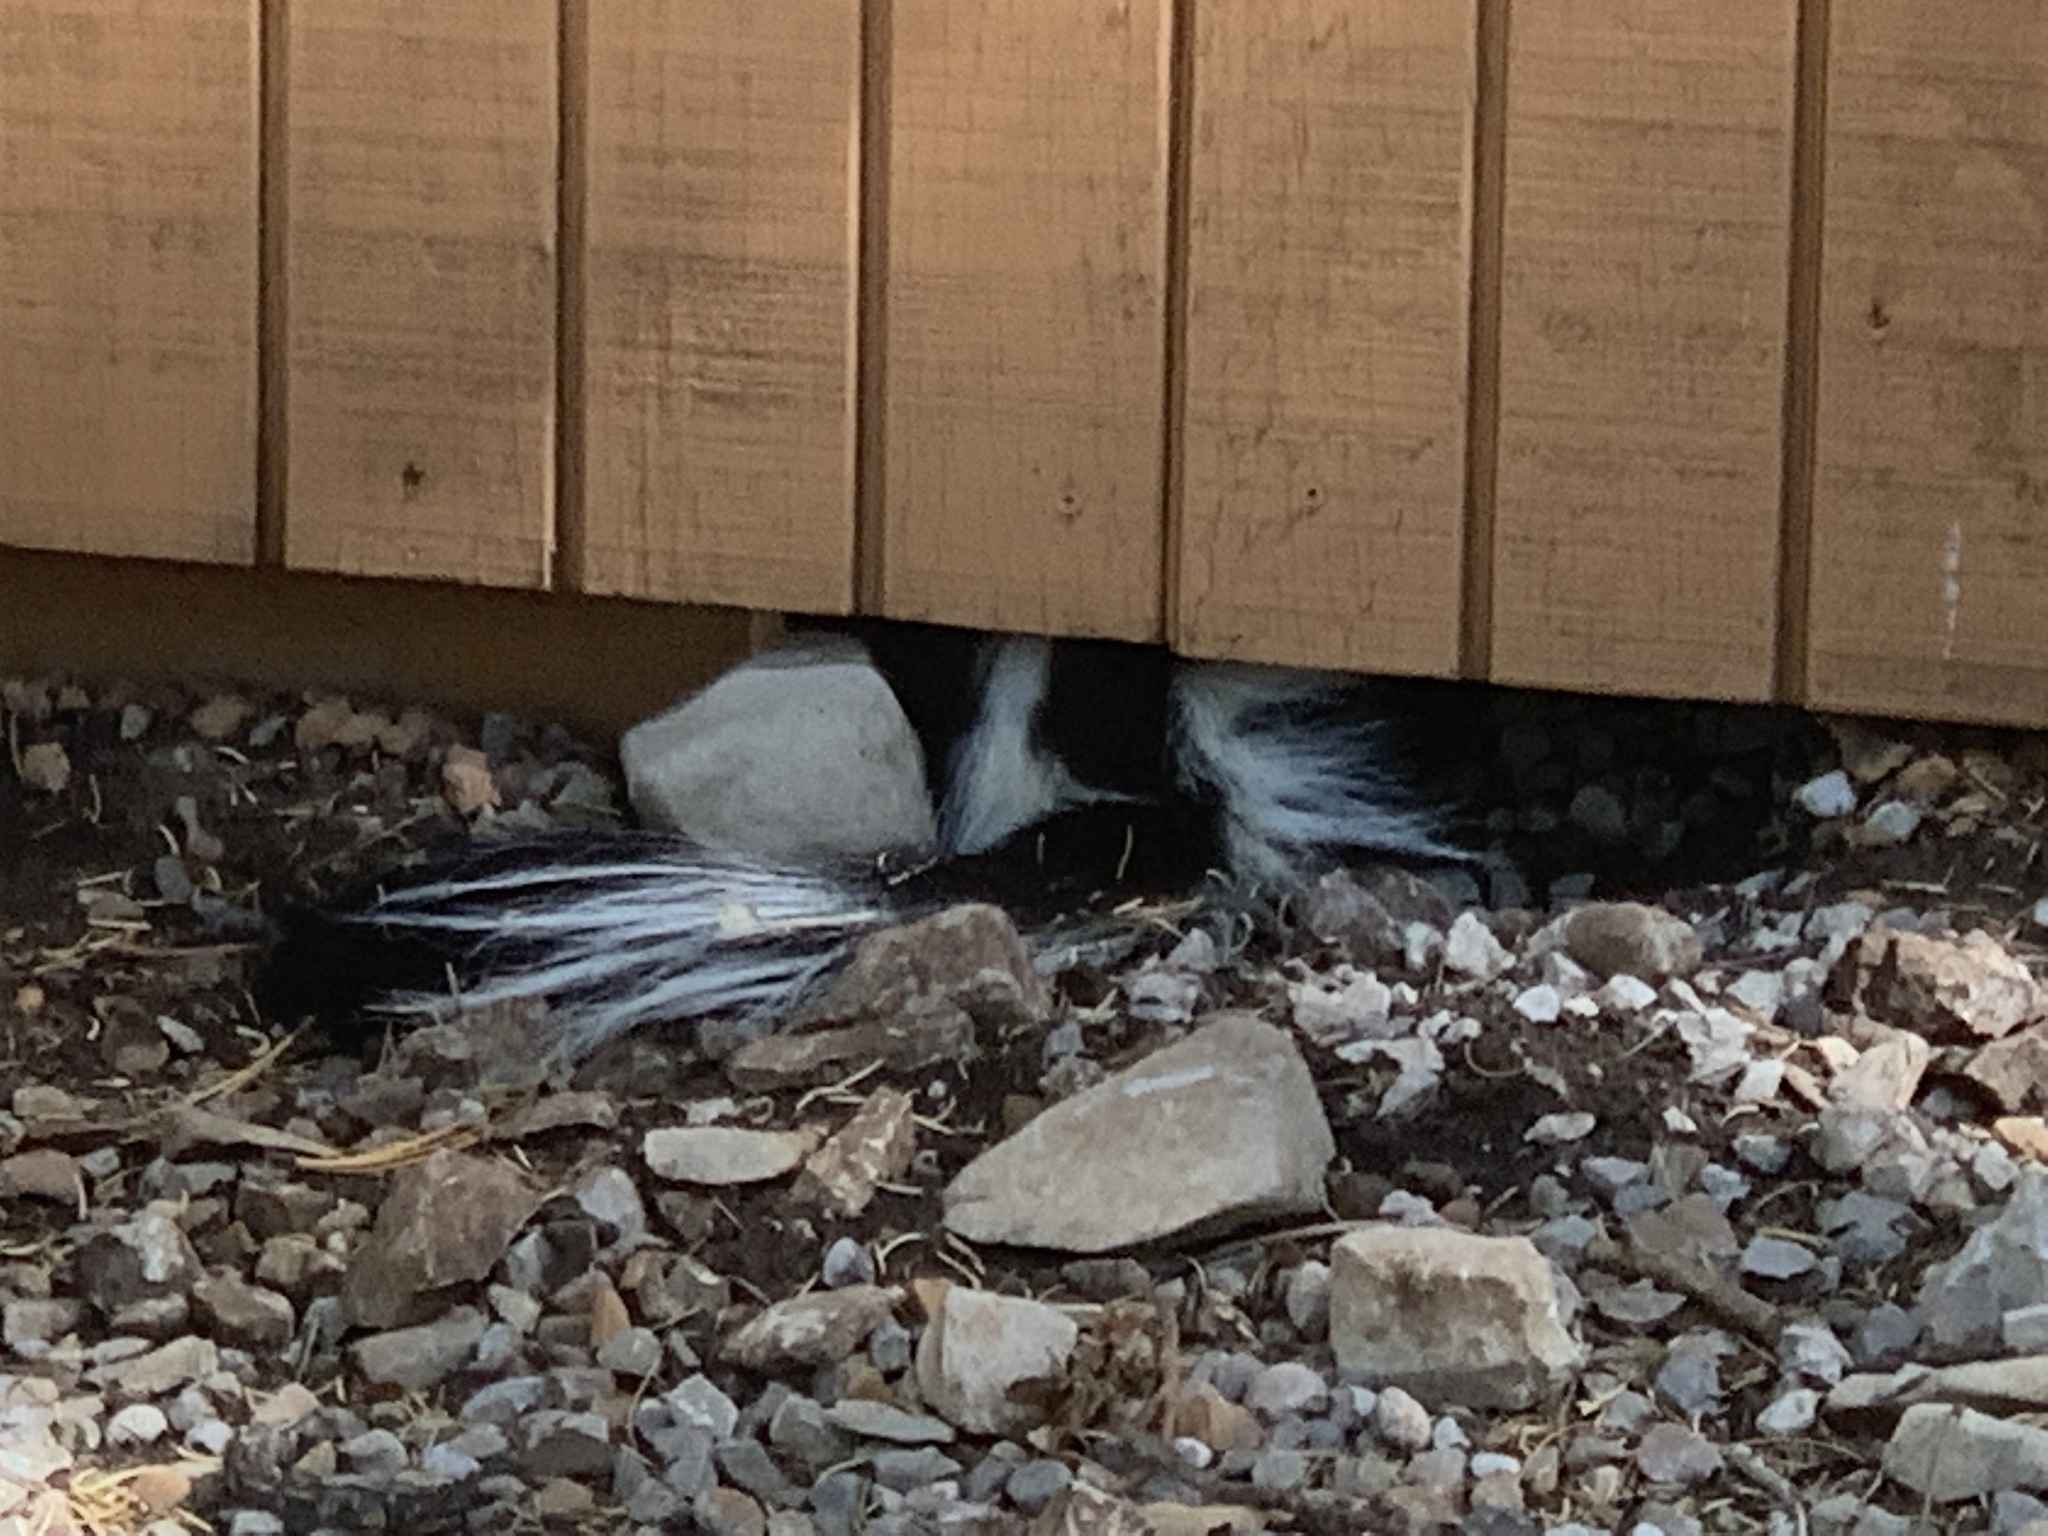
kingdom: Animalia
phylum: Chordata
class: Mammalia
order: Carnivora
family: Mephitidae
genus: Mephitis
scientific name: Mephitis mephitis
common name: Striped skunk
